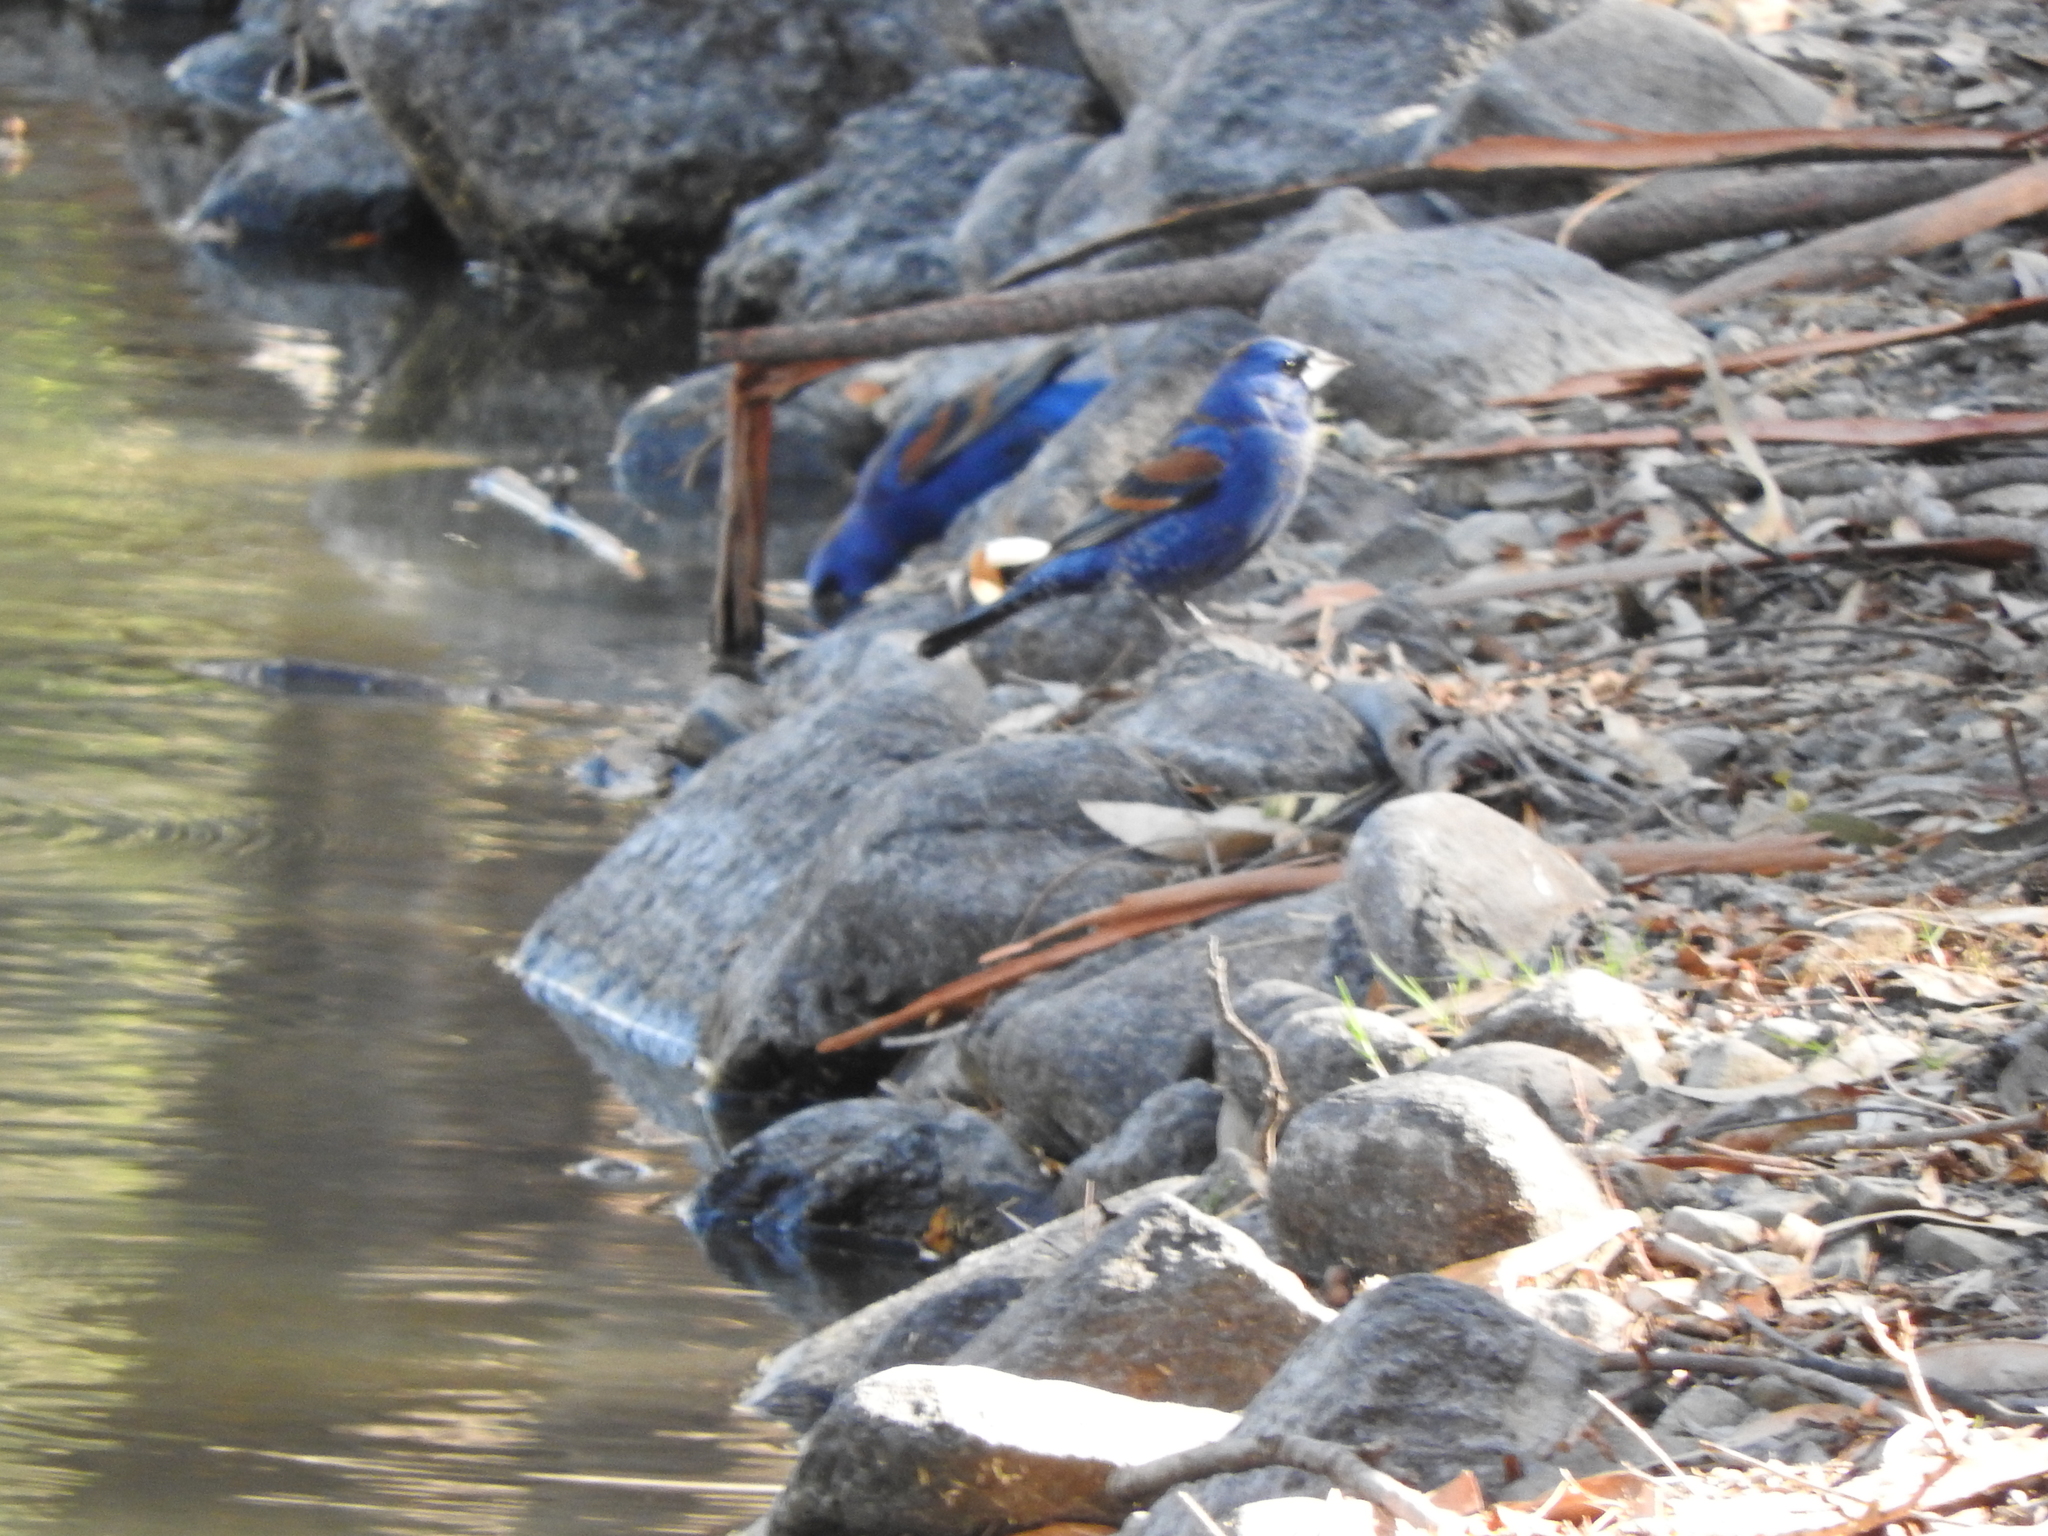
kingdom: Animalia
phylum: Chordata
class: Aves
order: Passeriformes
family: Cardinalidae
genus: Passerina
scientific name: Passerina caerulea
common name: Blue grosbeak
